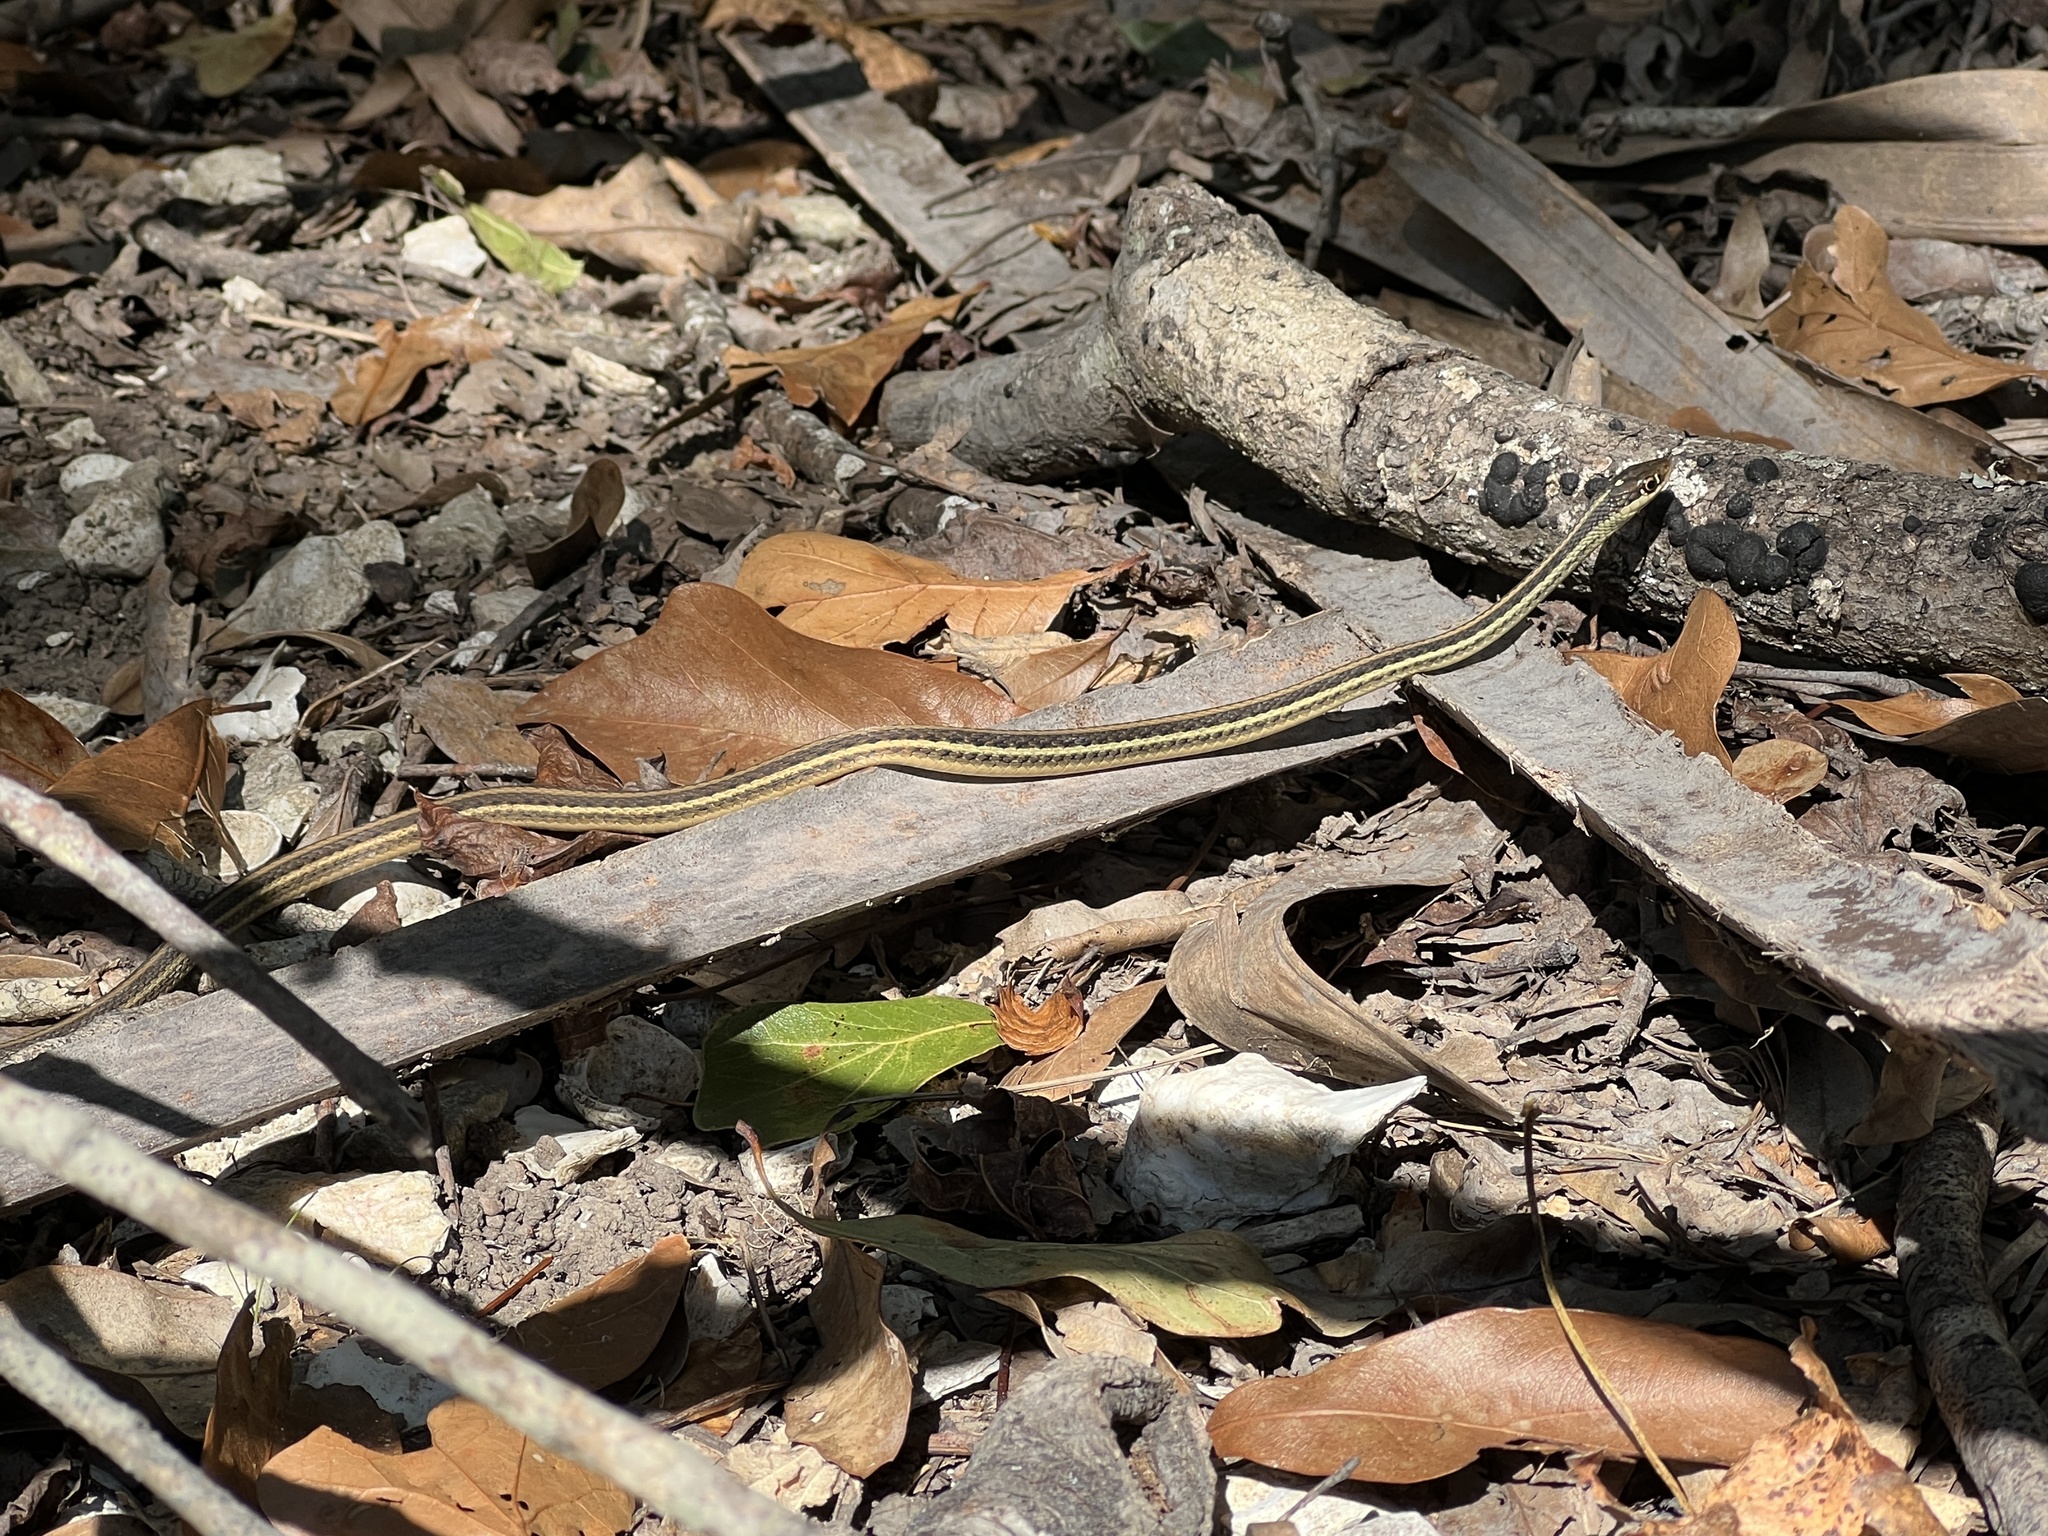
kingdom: Animalia
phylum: Chordata
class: Squamata
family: Colubridae
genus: Thamnophis
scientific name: Thamnophis proximus
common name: Western ribbon snake
